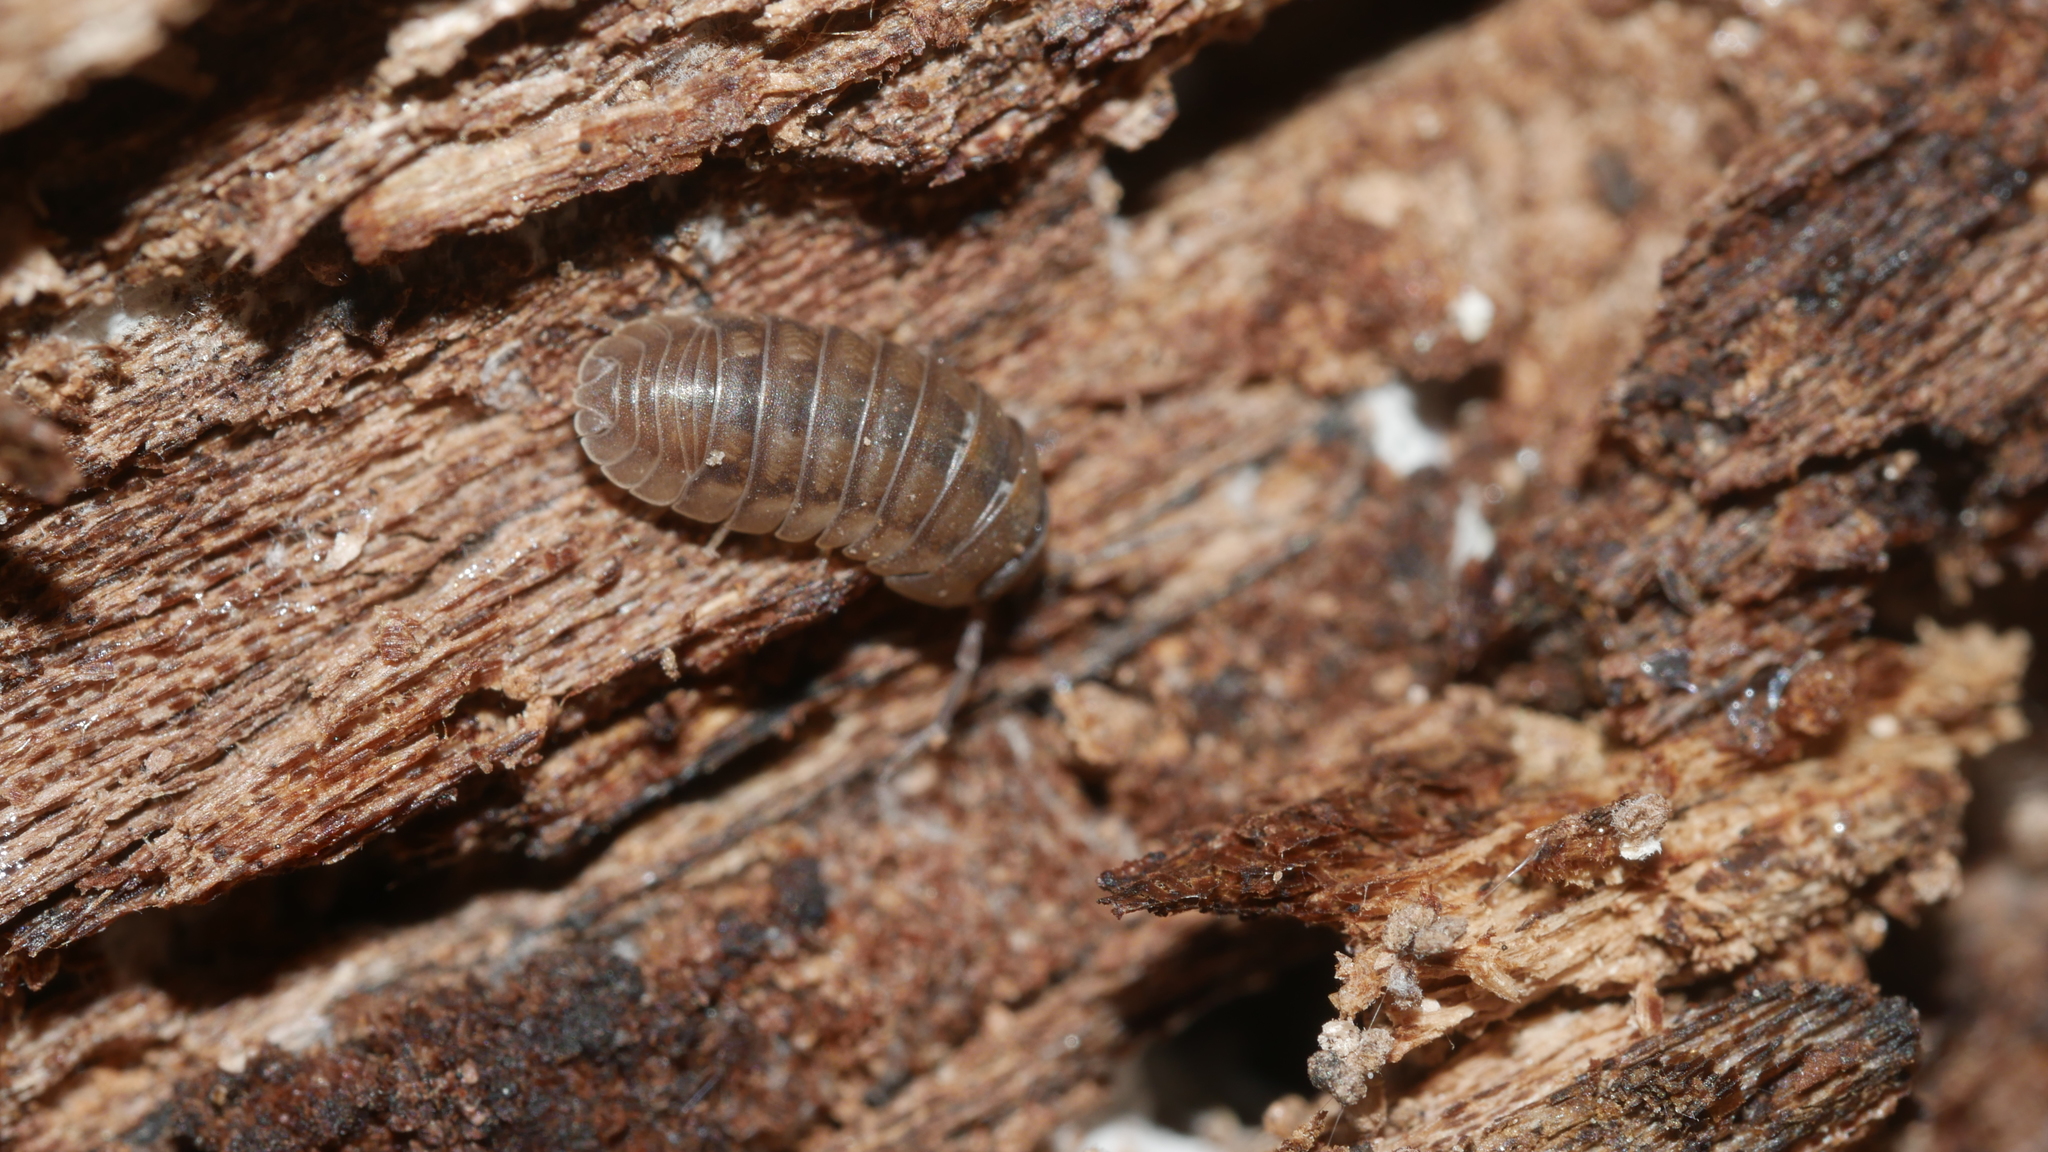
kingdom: Animalia
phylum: Arthropoda
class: Malacostraca
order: Isopoda
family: Armadillidiidae
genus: Armadillidium
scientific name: Armadillidium nasatum
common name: Isopod
